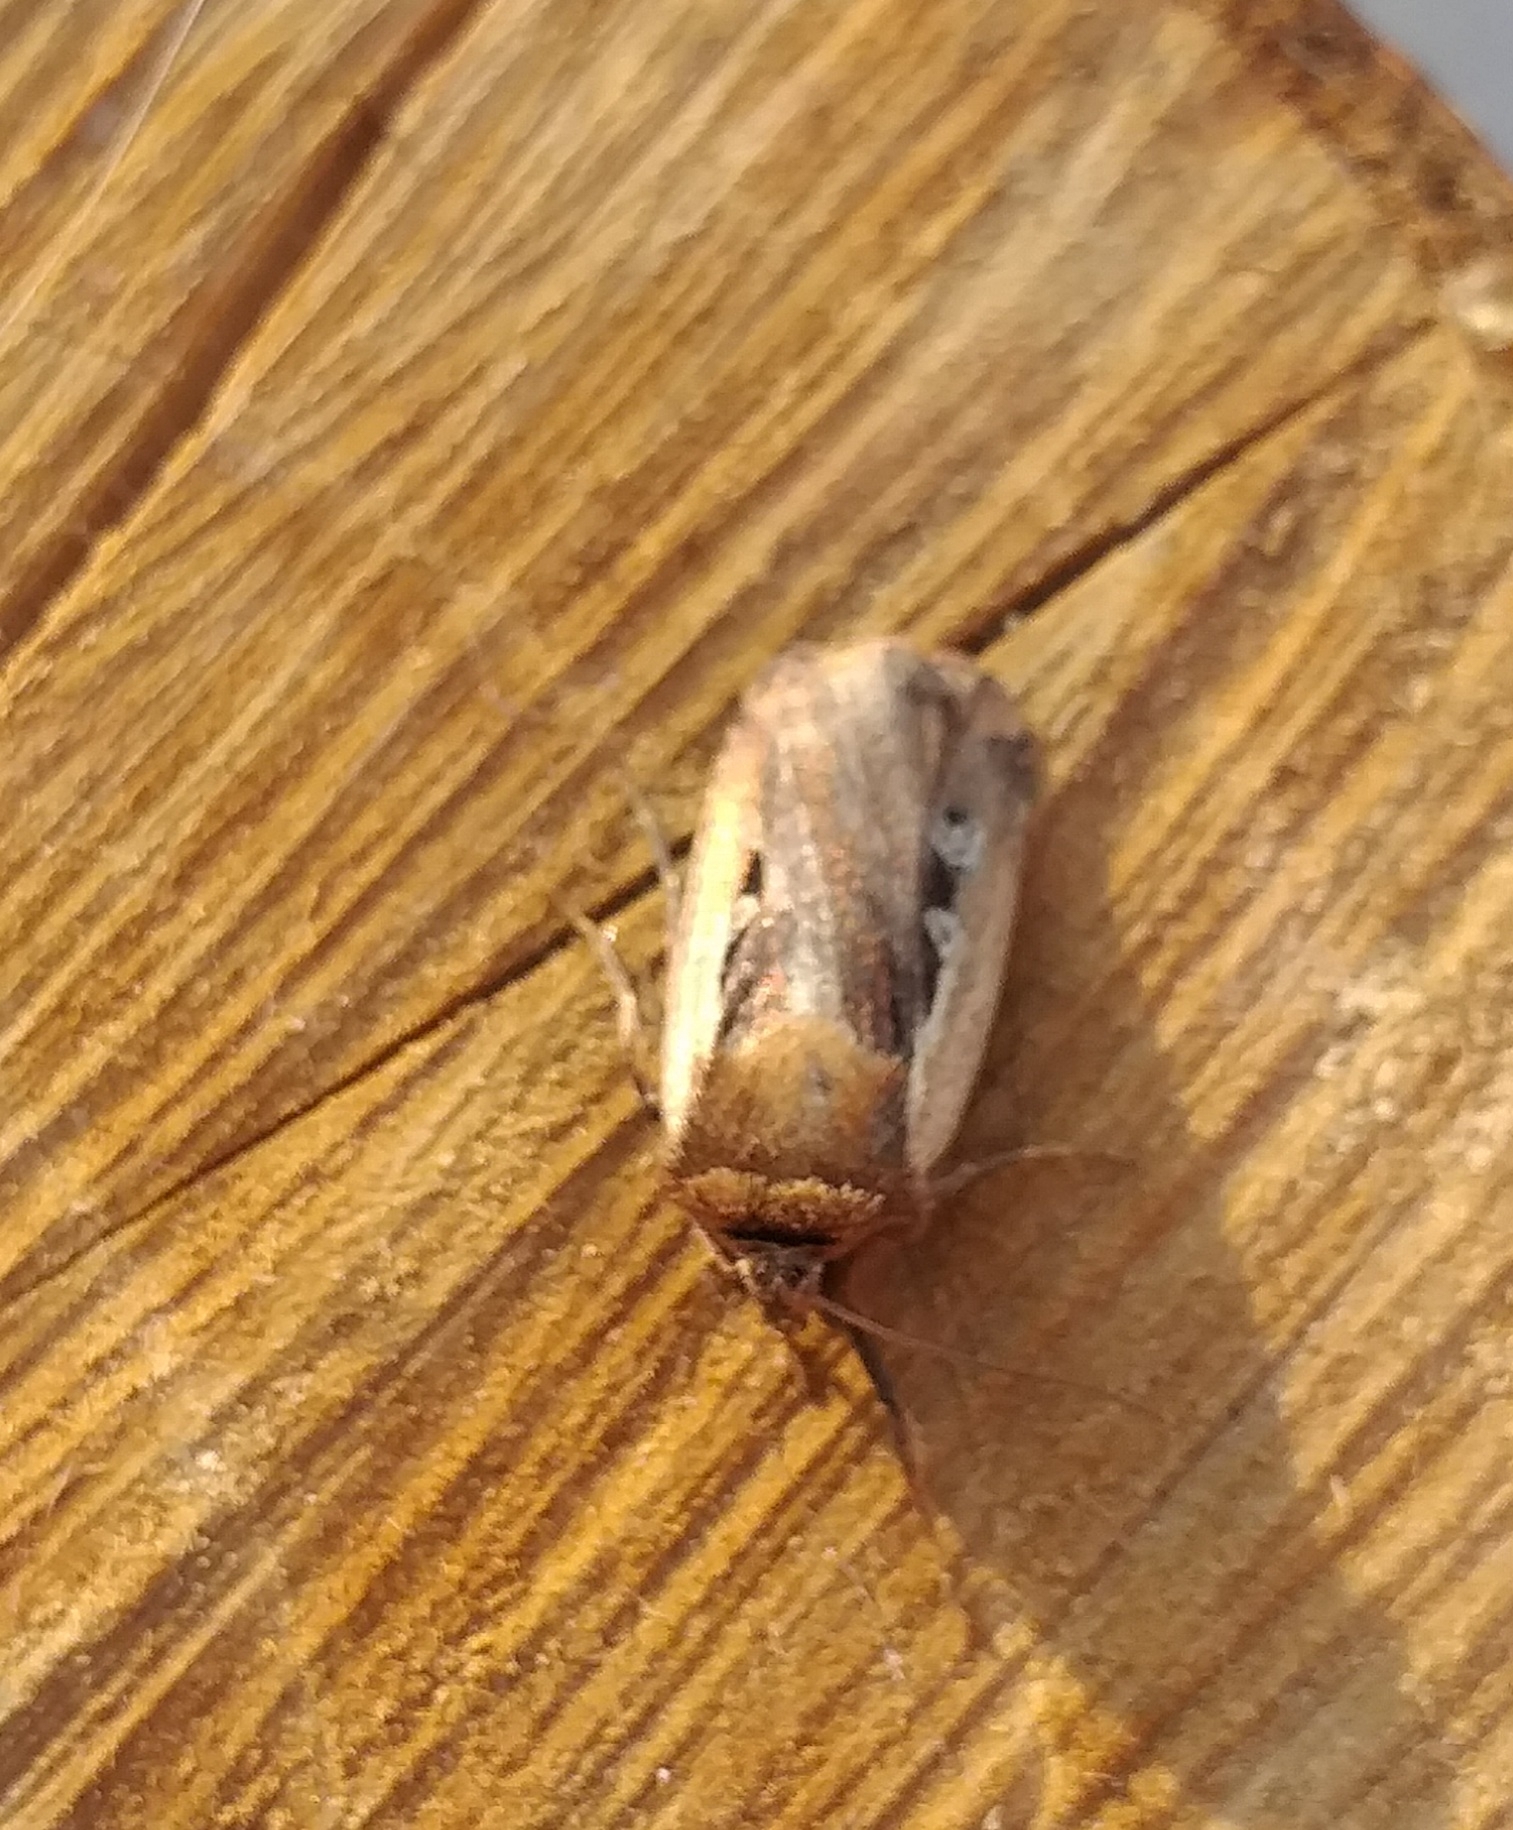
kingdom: Animalia
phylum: Arthropoda
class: Insecta
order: Lepidoptera
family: Noctuidae
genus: Ochropleura
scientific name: Ochropleura plecta
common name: Flame shoulder
